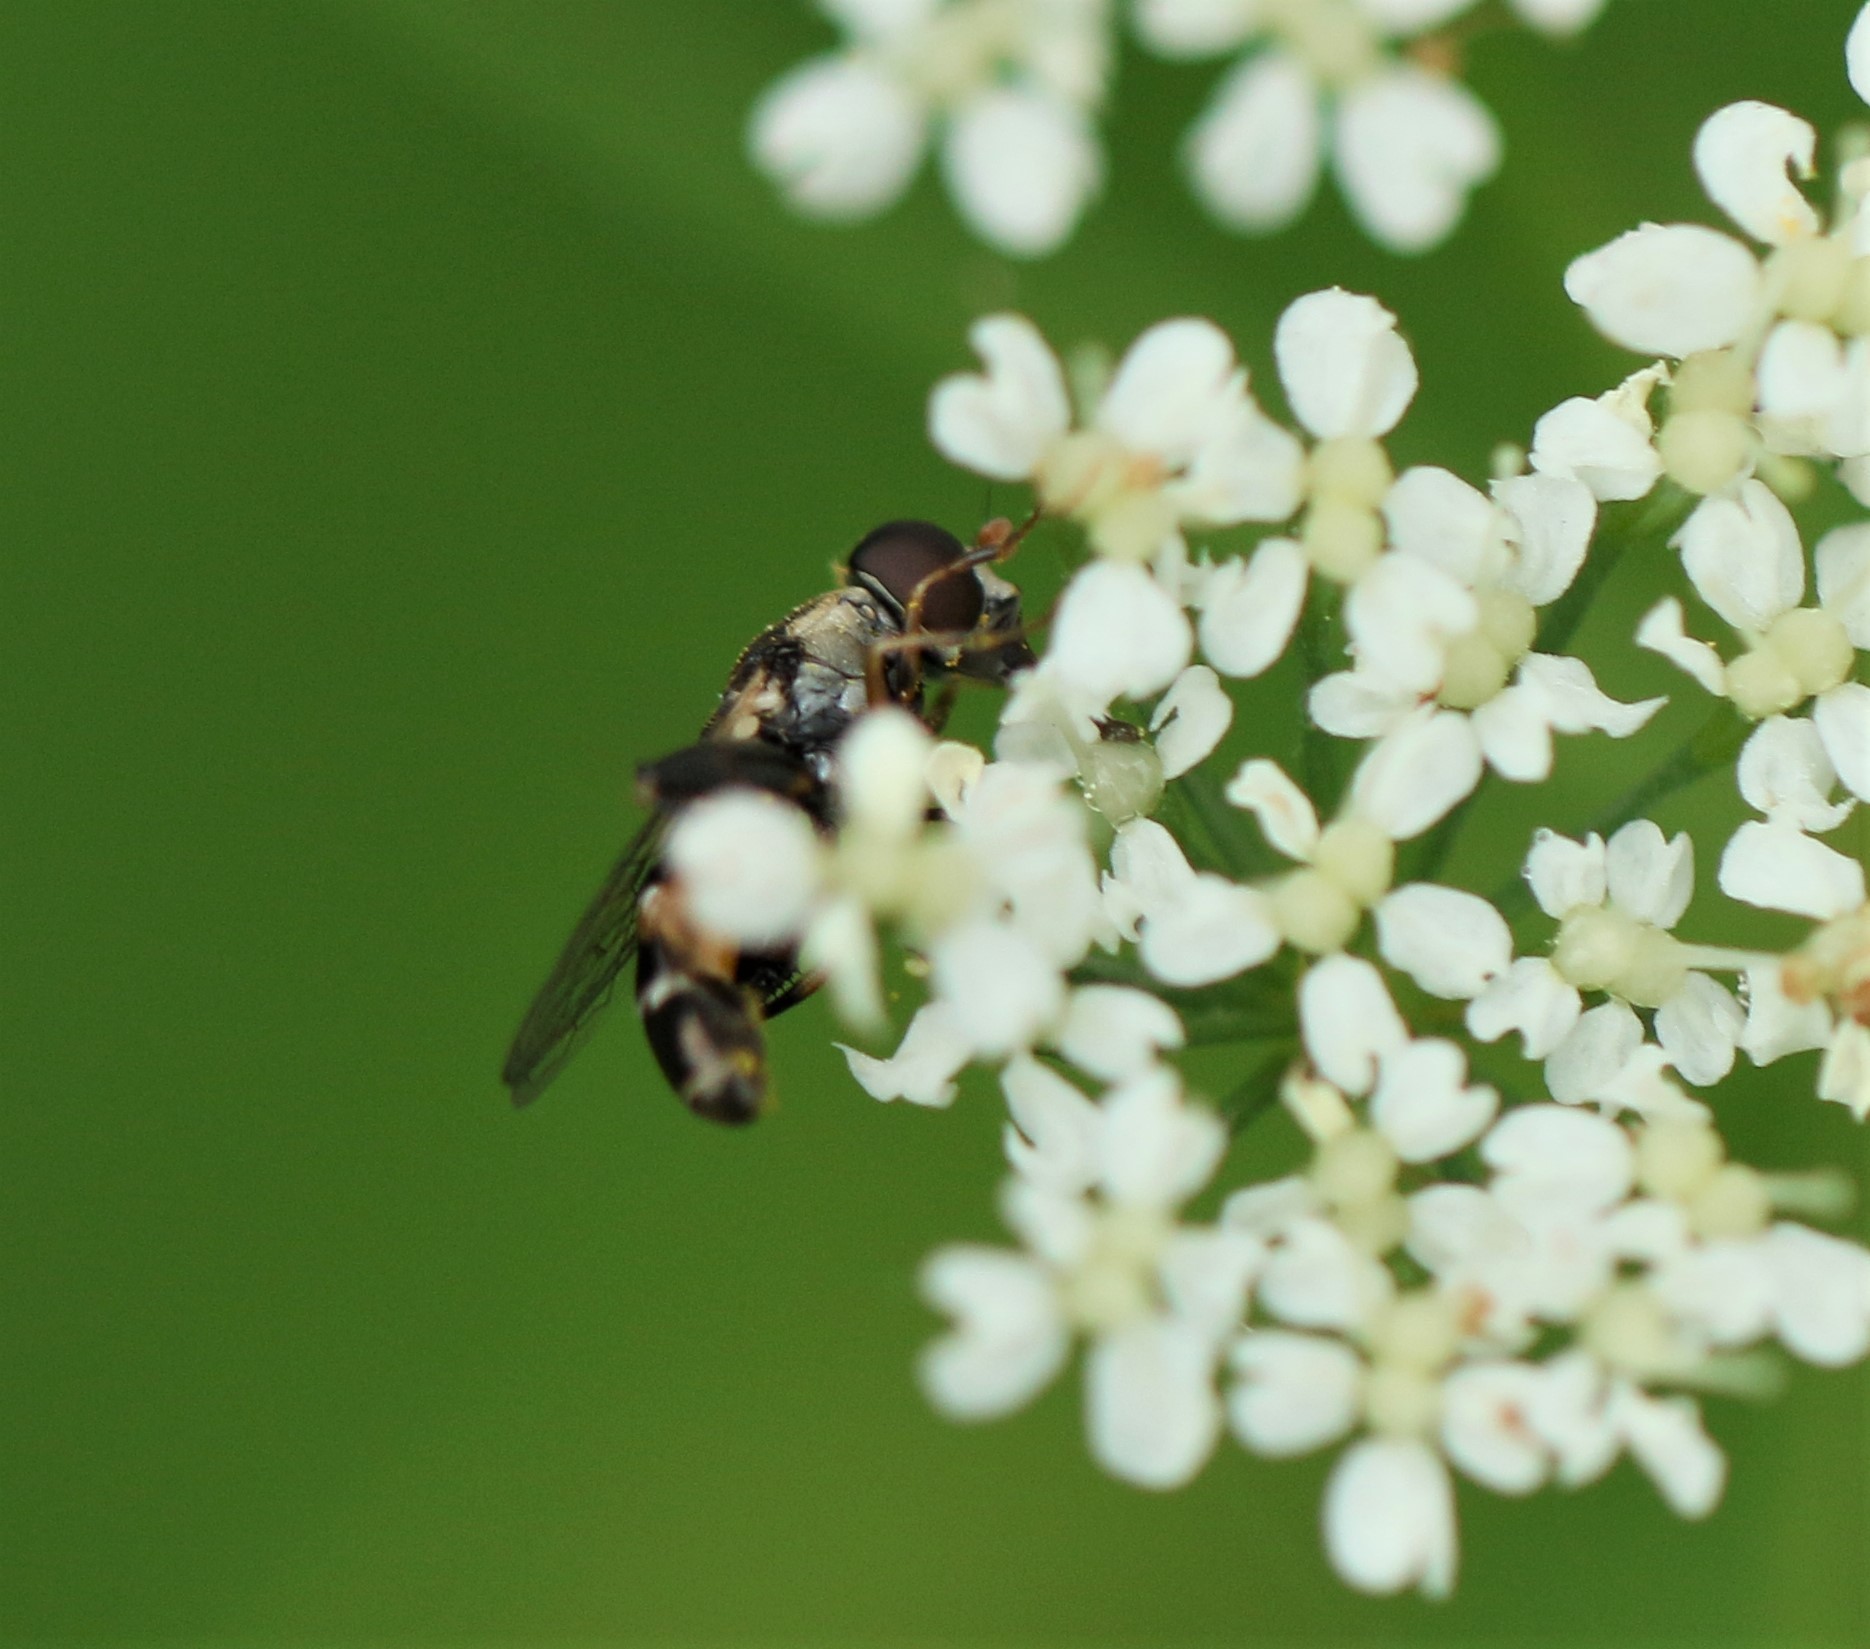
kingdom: Animalia
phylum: Arthropoda
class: Insecta
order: Diptera
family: Syrphidae
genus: Syritta
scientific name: Syritta pipiens
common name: Hover fly
